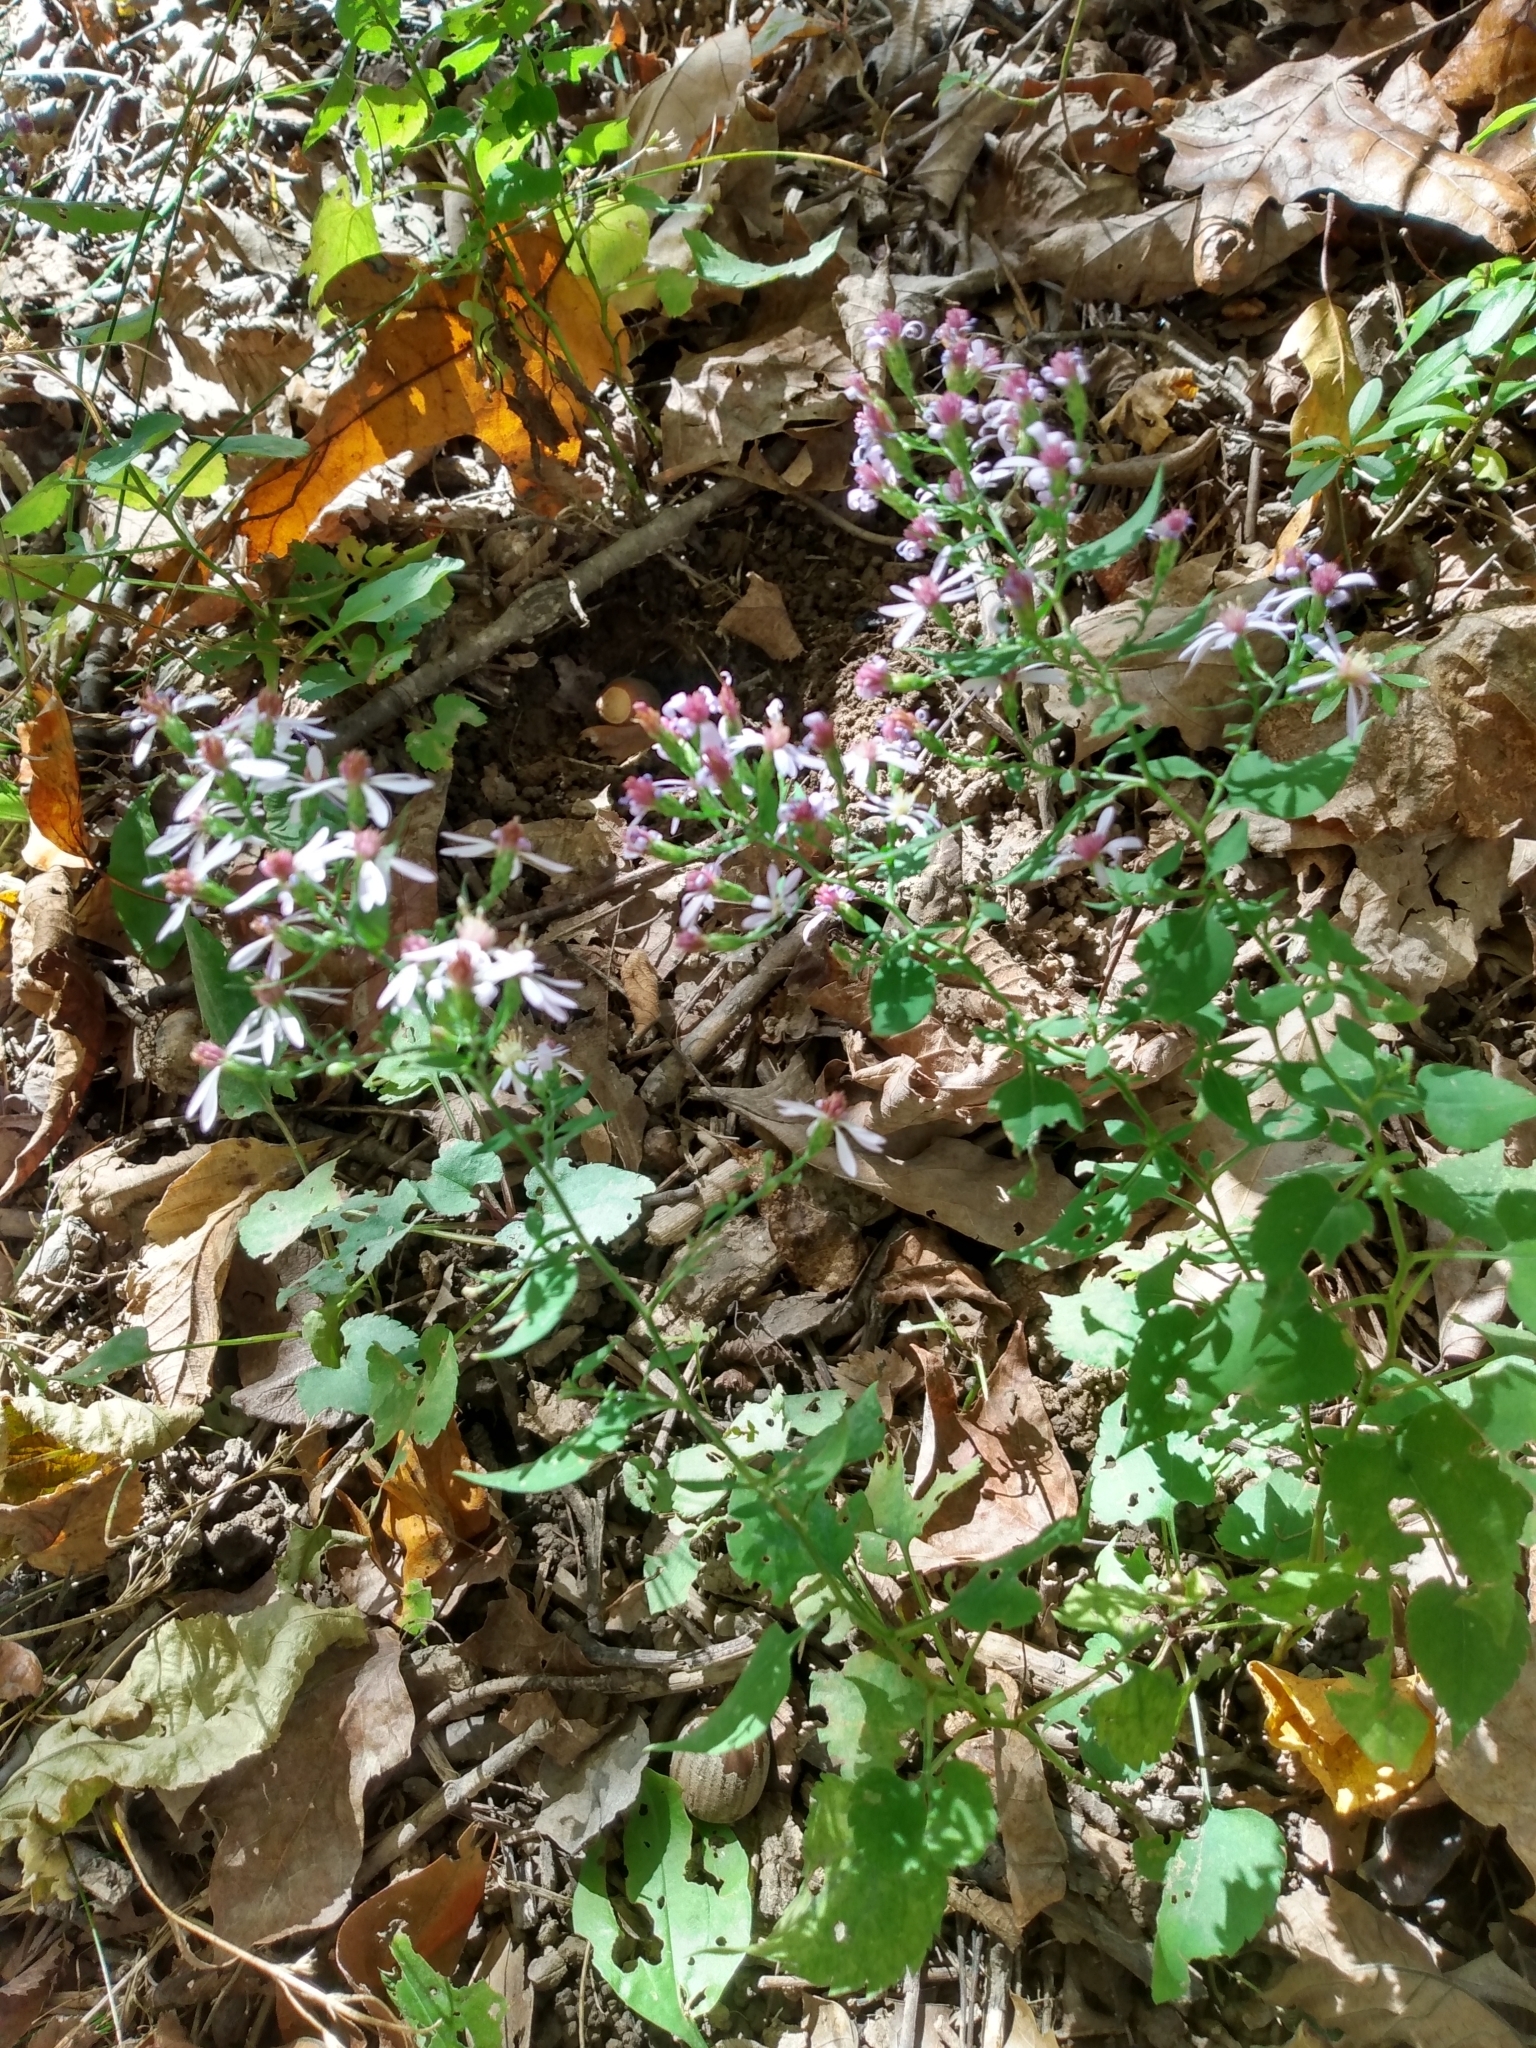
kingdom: Plantae
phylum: Tracheophyta
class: Magnoliopsida
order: Asterales
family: Asteraceae
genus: Symphyotrichum
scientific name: Symphyotrichum cordifolium
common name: Beeweed
